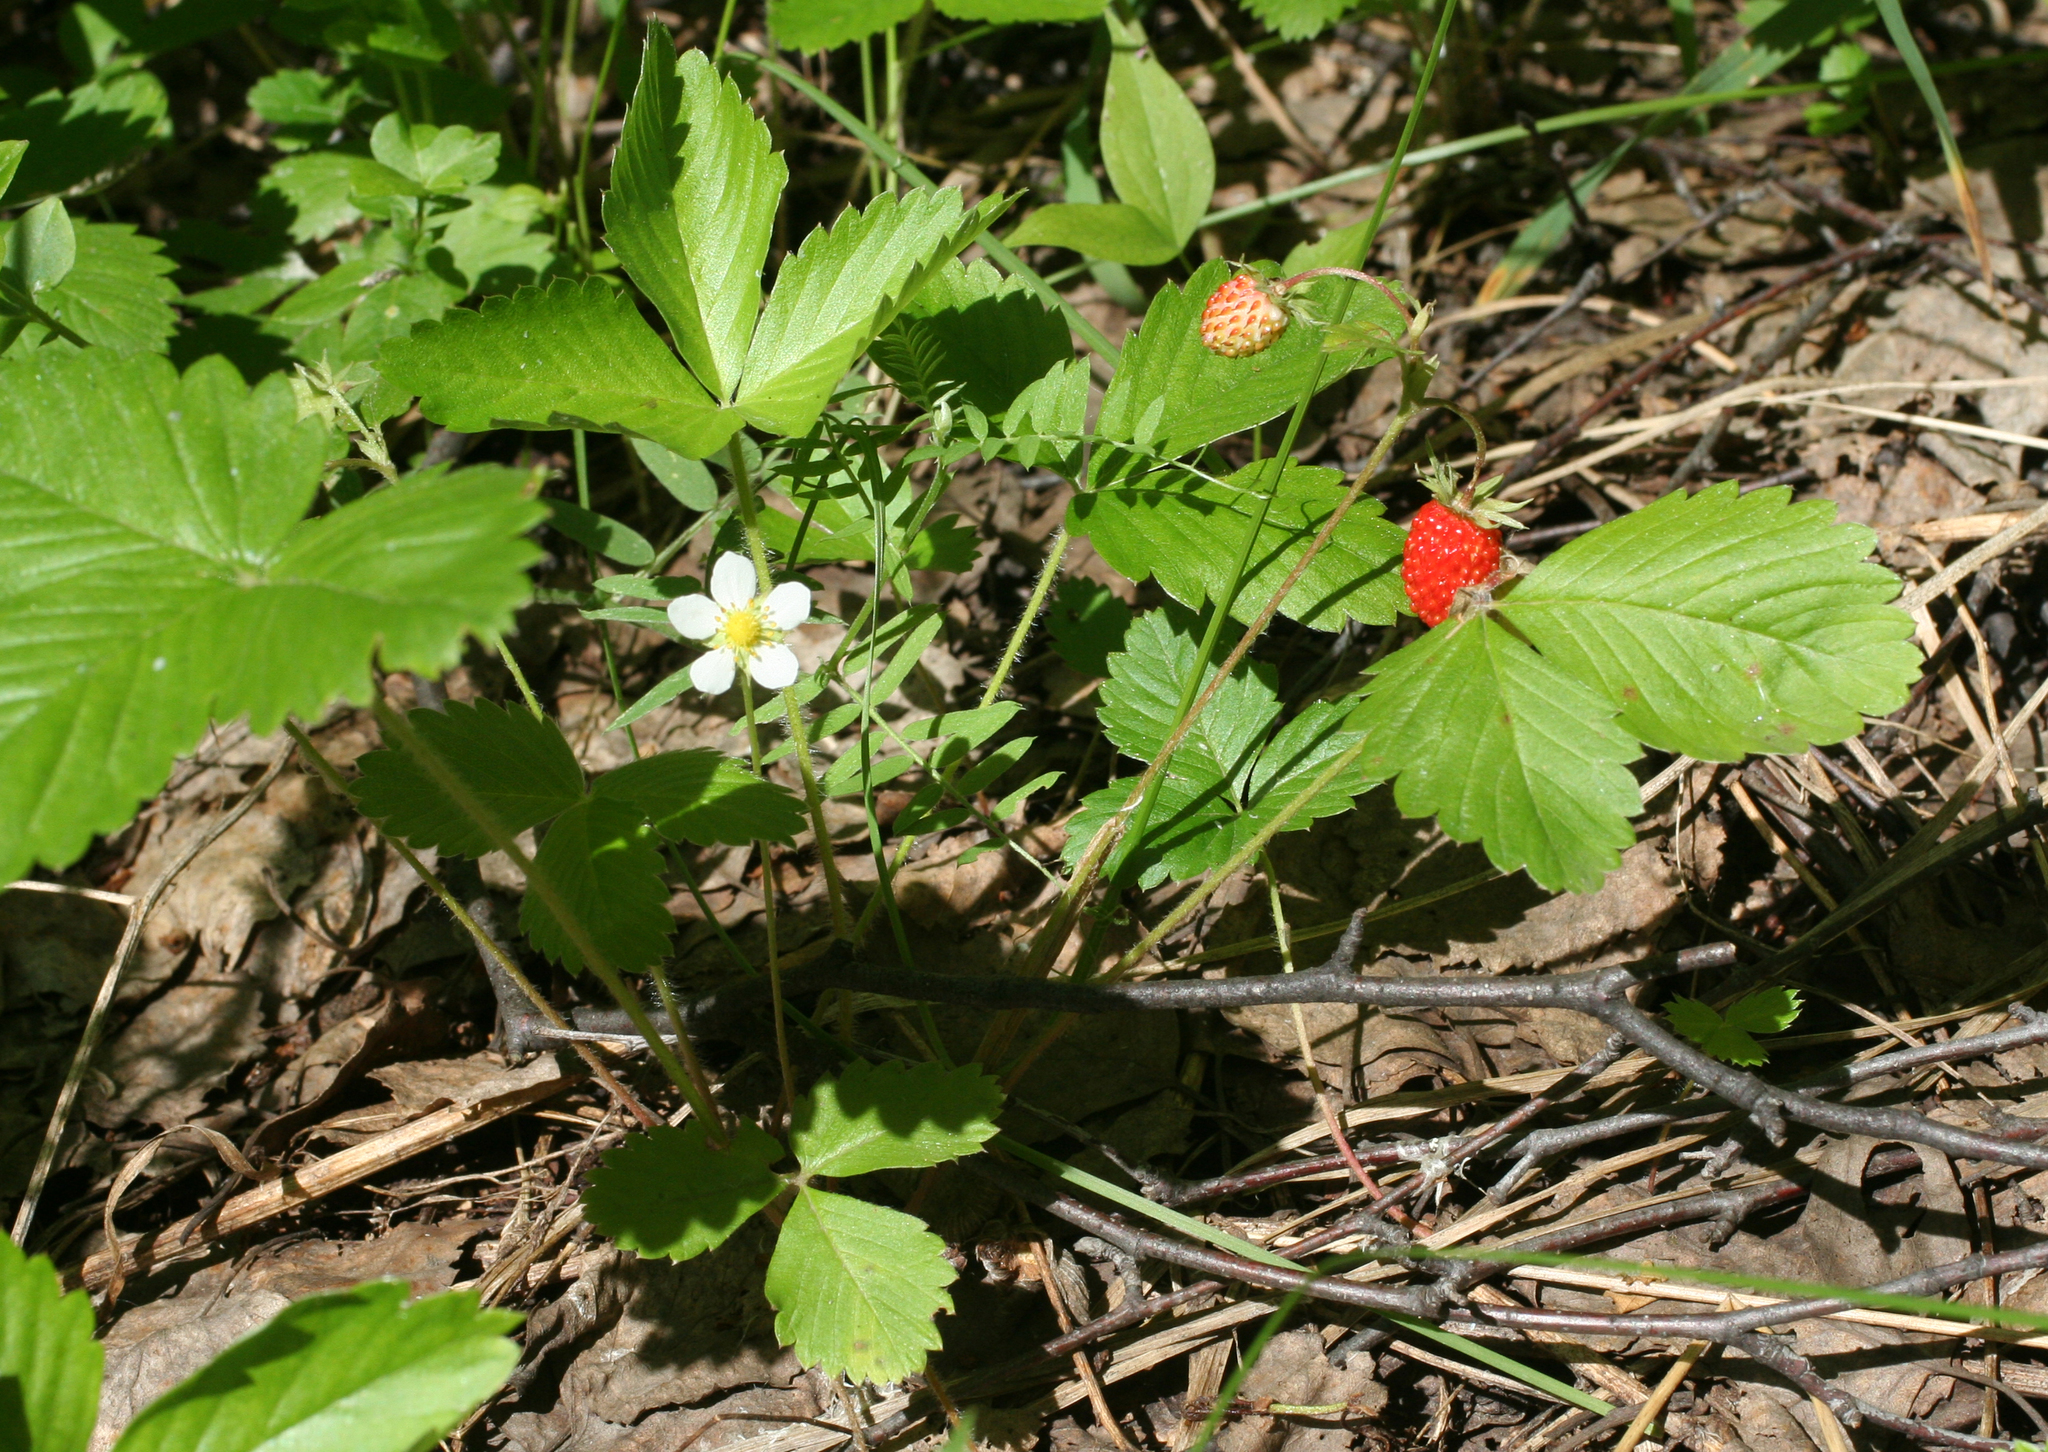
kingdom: Plantae
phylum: Tracheophyta
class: Magnoliopsida
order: Rosales
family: Rosaceae
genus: Fragaria
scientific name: Fragaria vesca
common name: Wild strawberry
